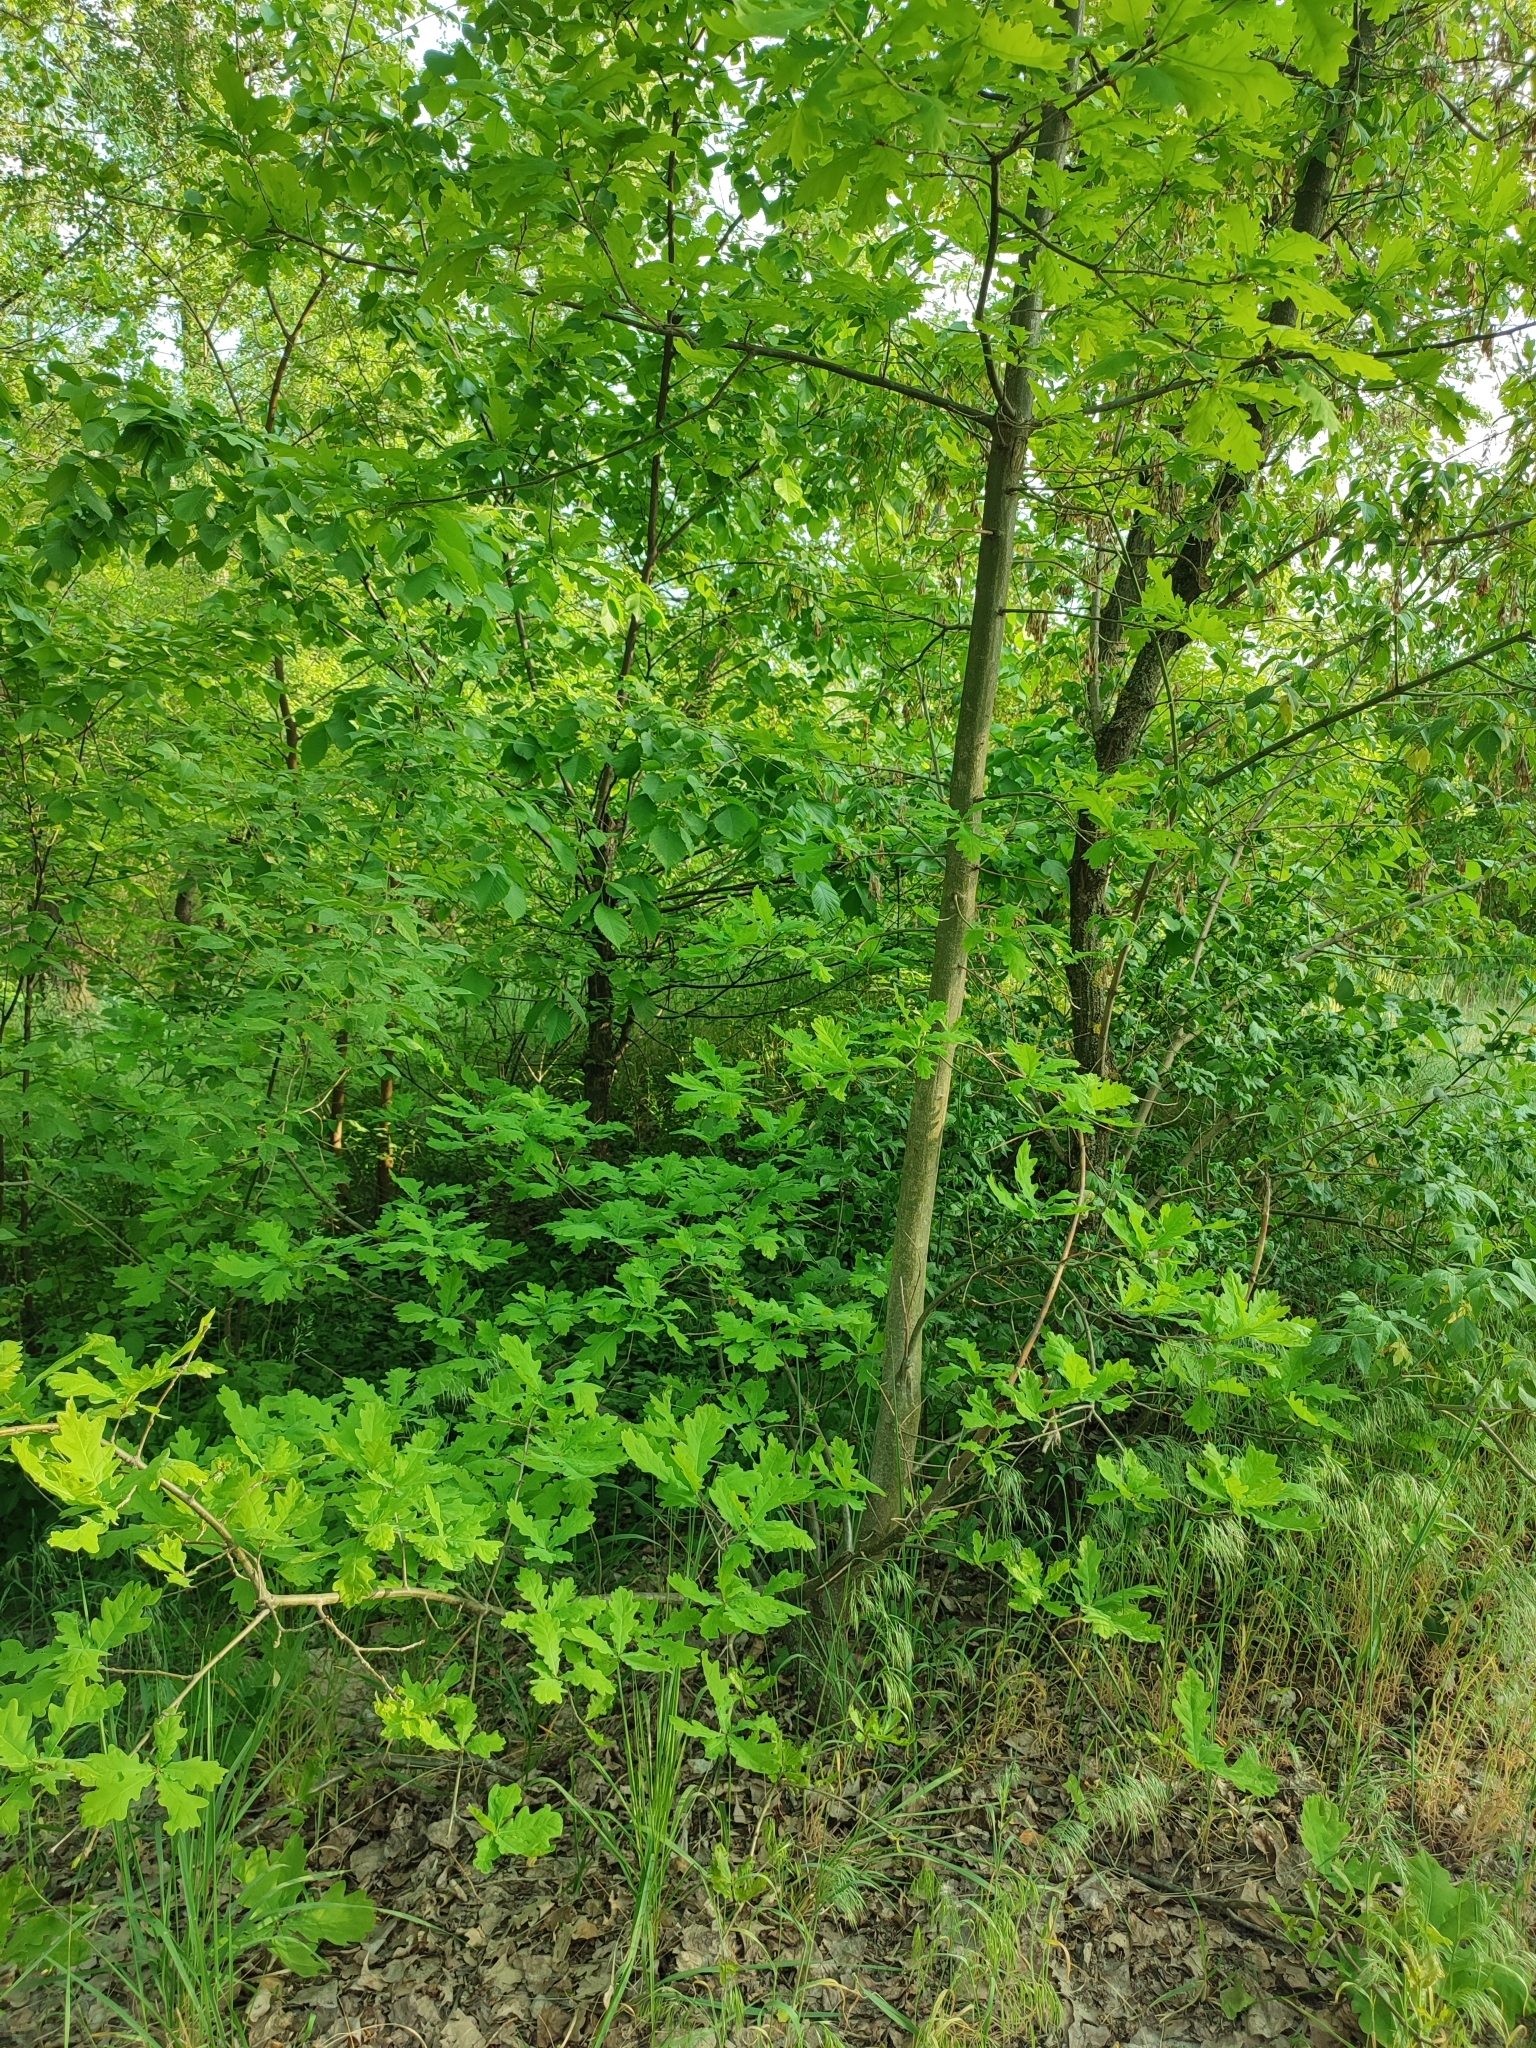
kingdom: Plantae
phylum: Tracheophyta
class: Magnoliopsida
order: Fagales
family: Fagaceae
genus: Quercus
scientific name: Quercus robur
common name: Pedunculate oak
